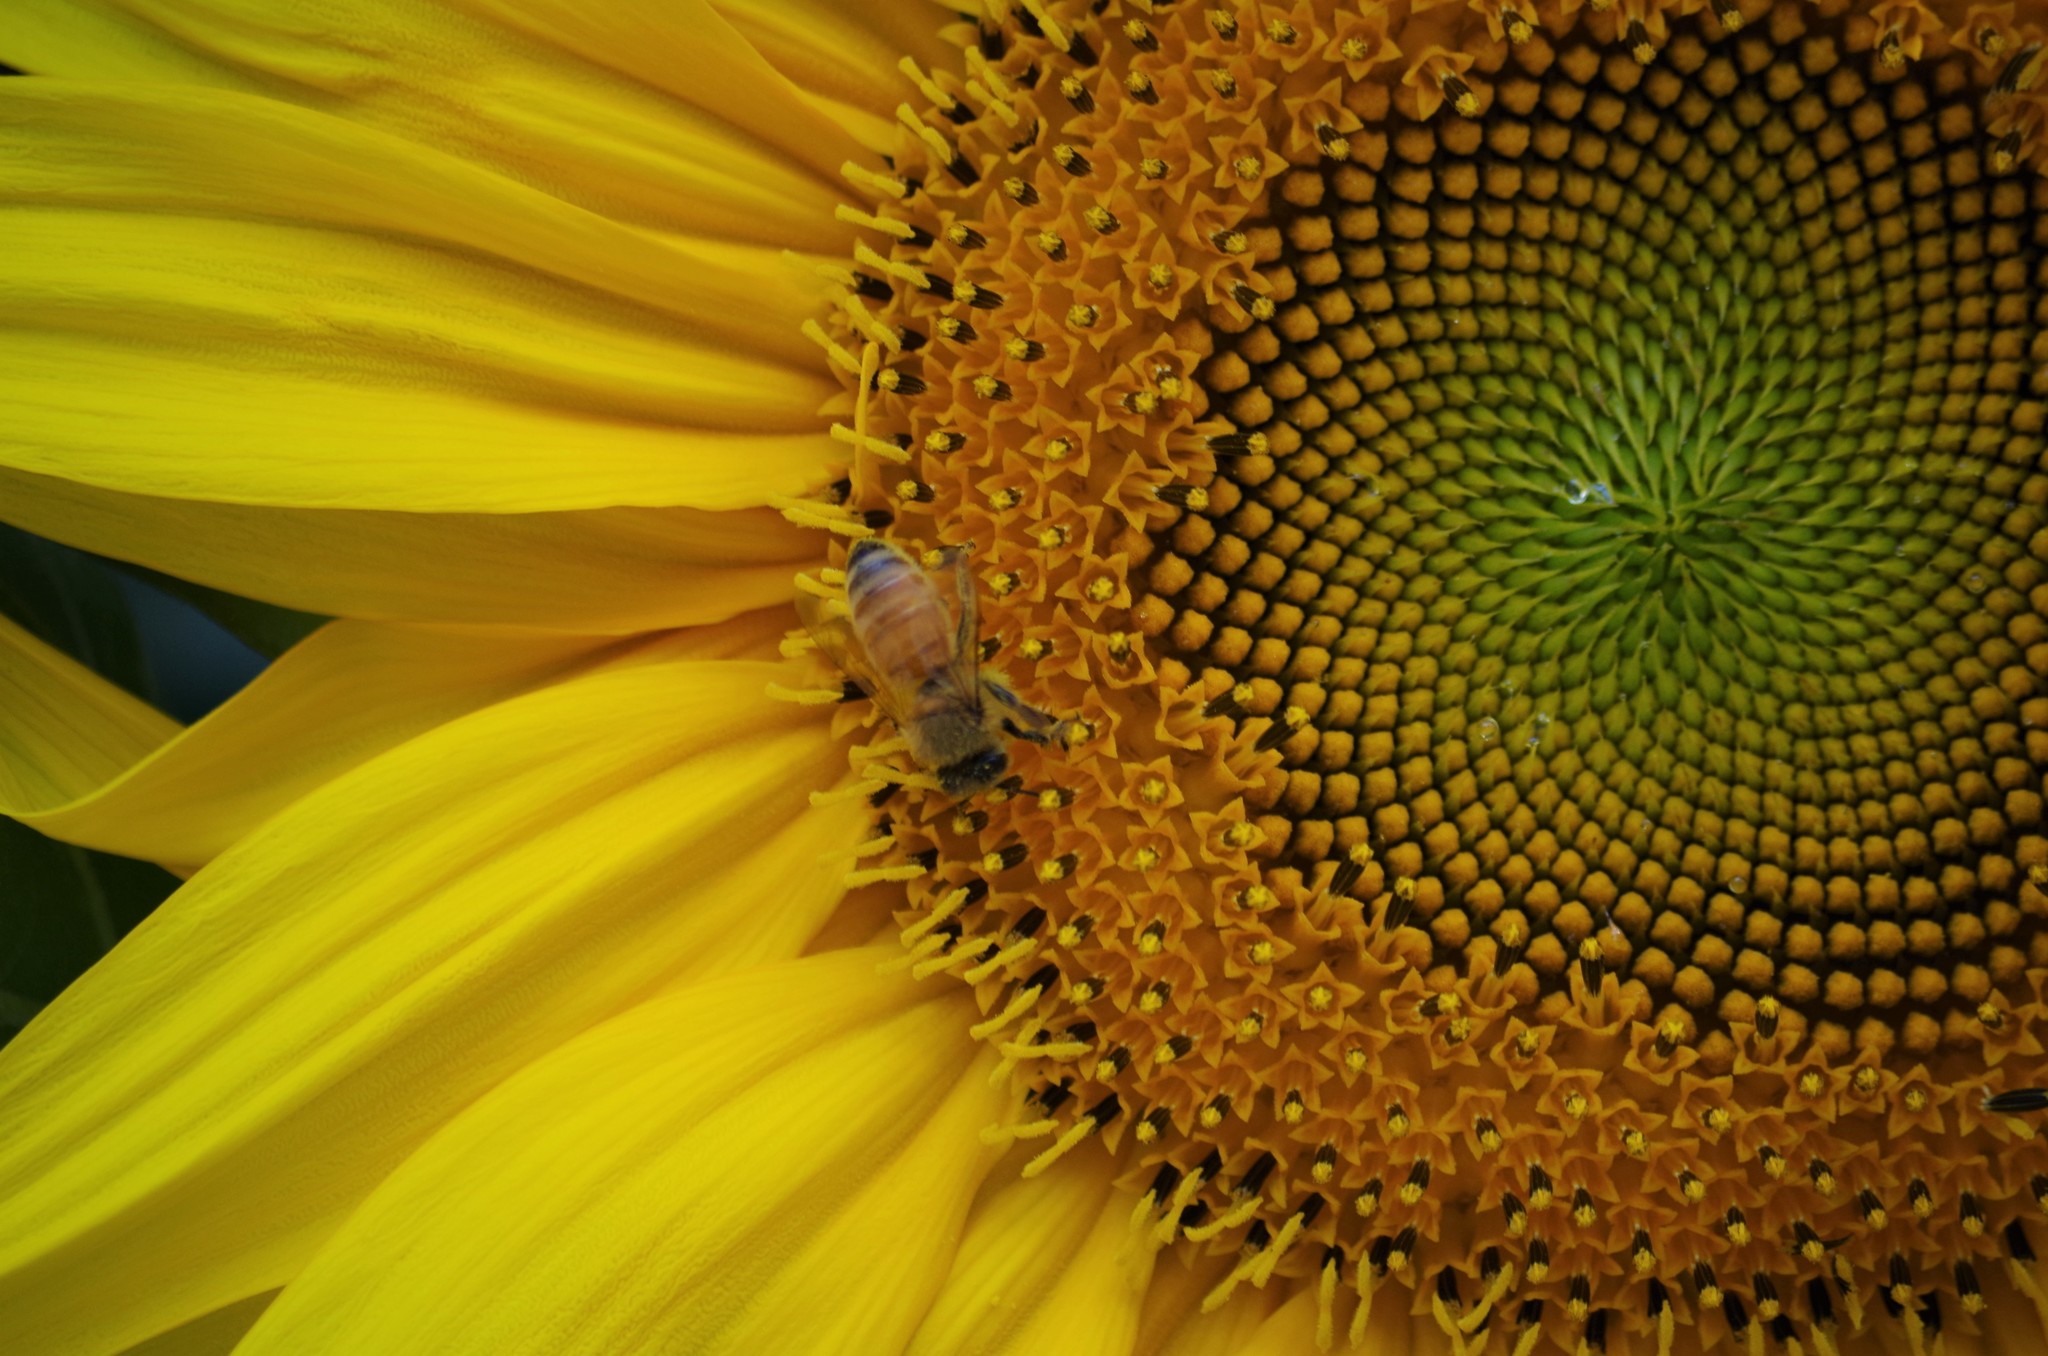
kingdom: Animalia
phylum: Arthropoda
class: Insecta
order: Hymenoptera
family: Apidae
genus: Apis
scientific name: Apis mellifera
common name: Honey bee
